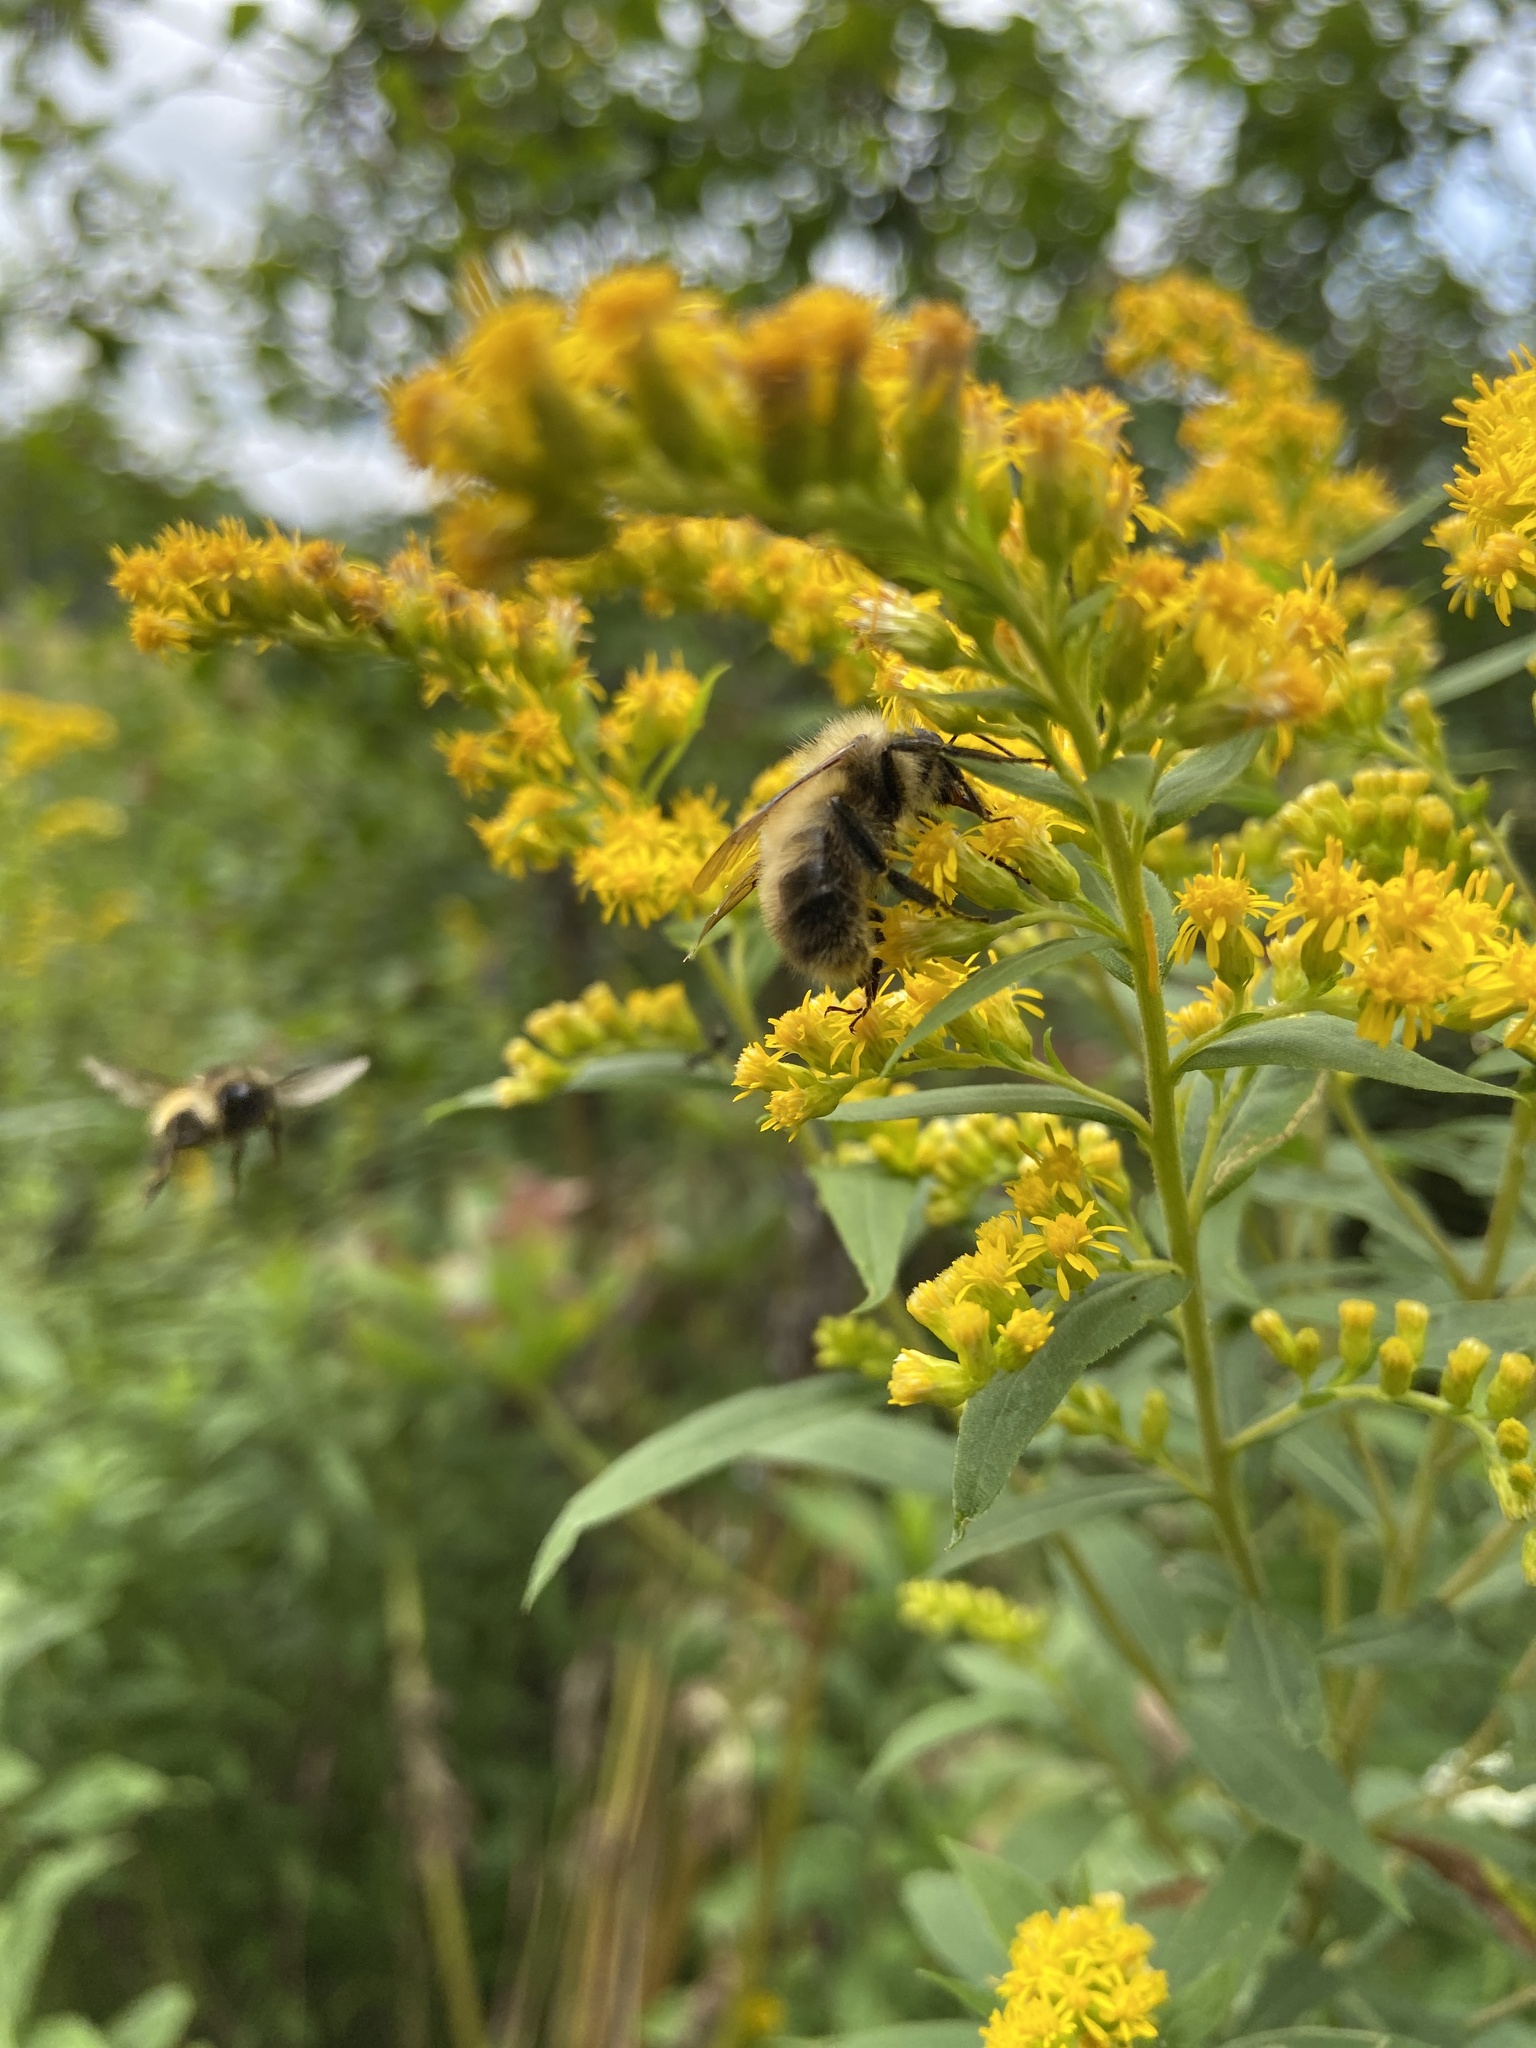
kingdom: Animalia
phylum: Arthropoda
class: Insecta
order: Hymenoptera
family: Apidae
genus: Bombus
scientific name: Bombus perplexus
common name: Confusing bumble bee
